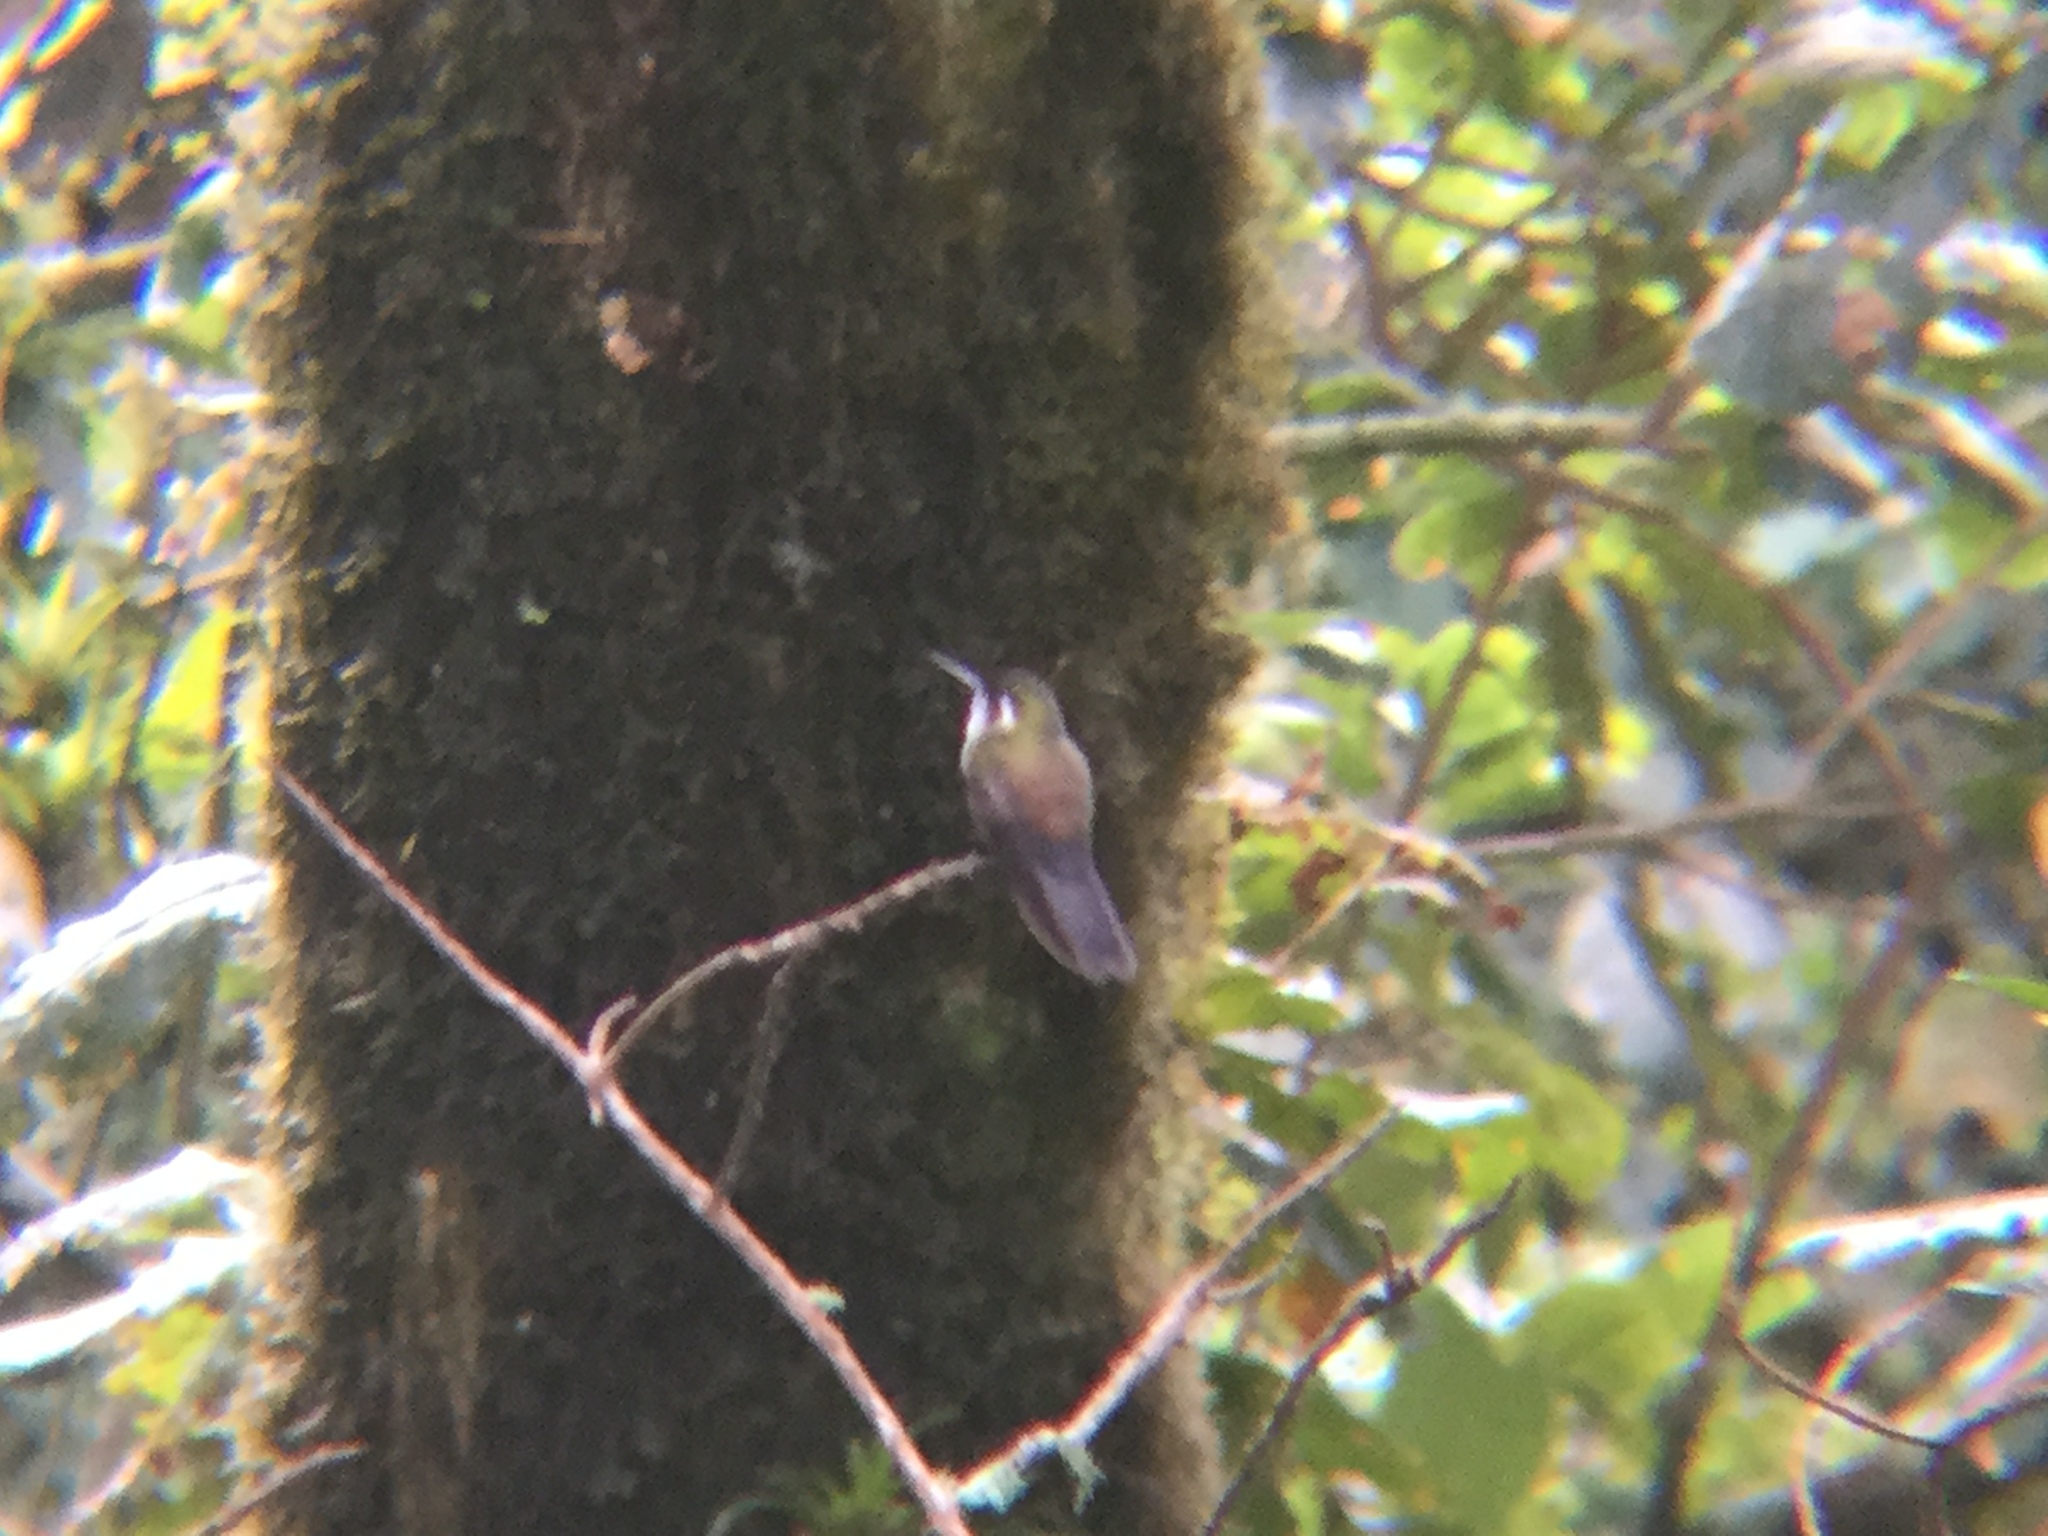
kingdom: Animalia
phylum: Chordata
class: Aves
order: Apodiformes
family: Trochilidae
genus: Lampornis
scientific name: Lampornis viridipallens
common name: Green-throated mountain-gem
